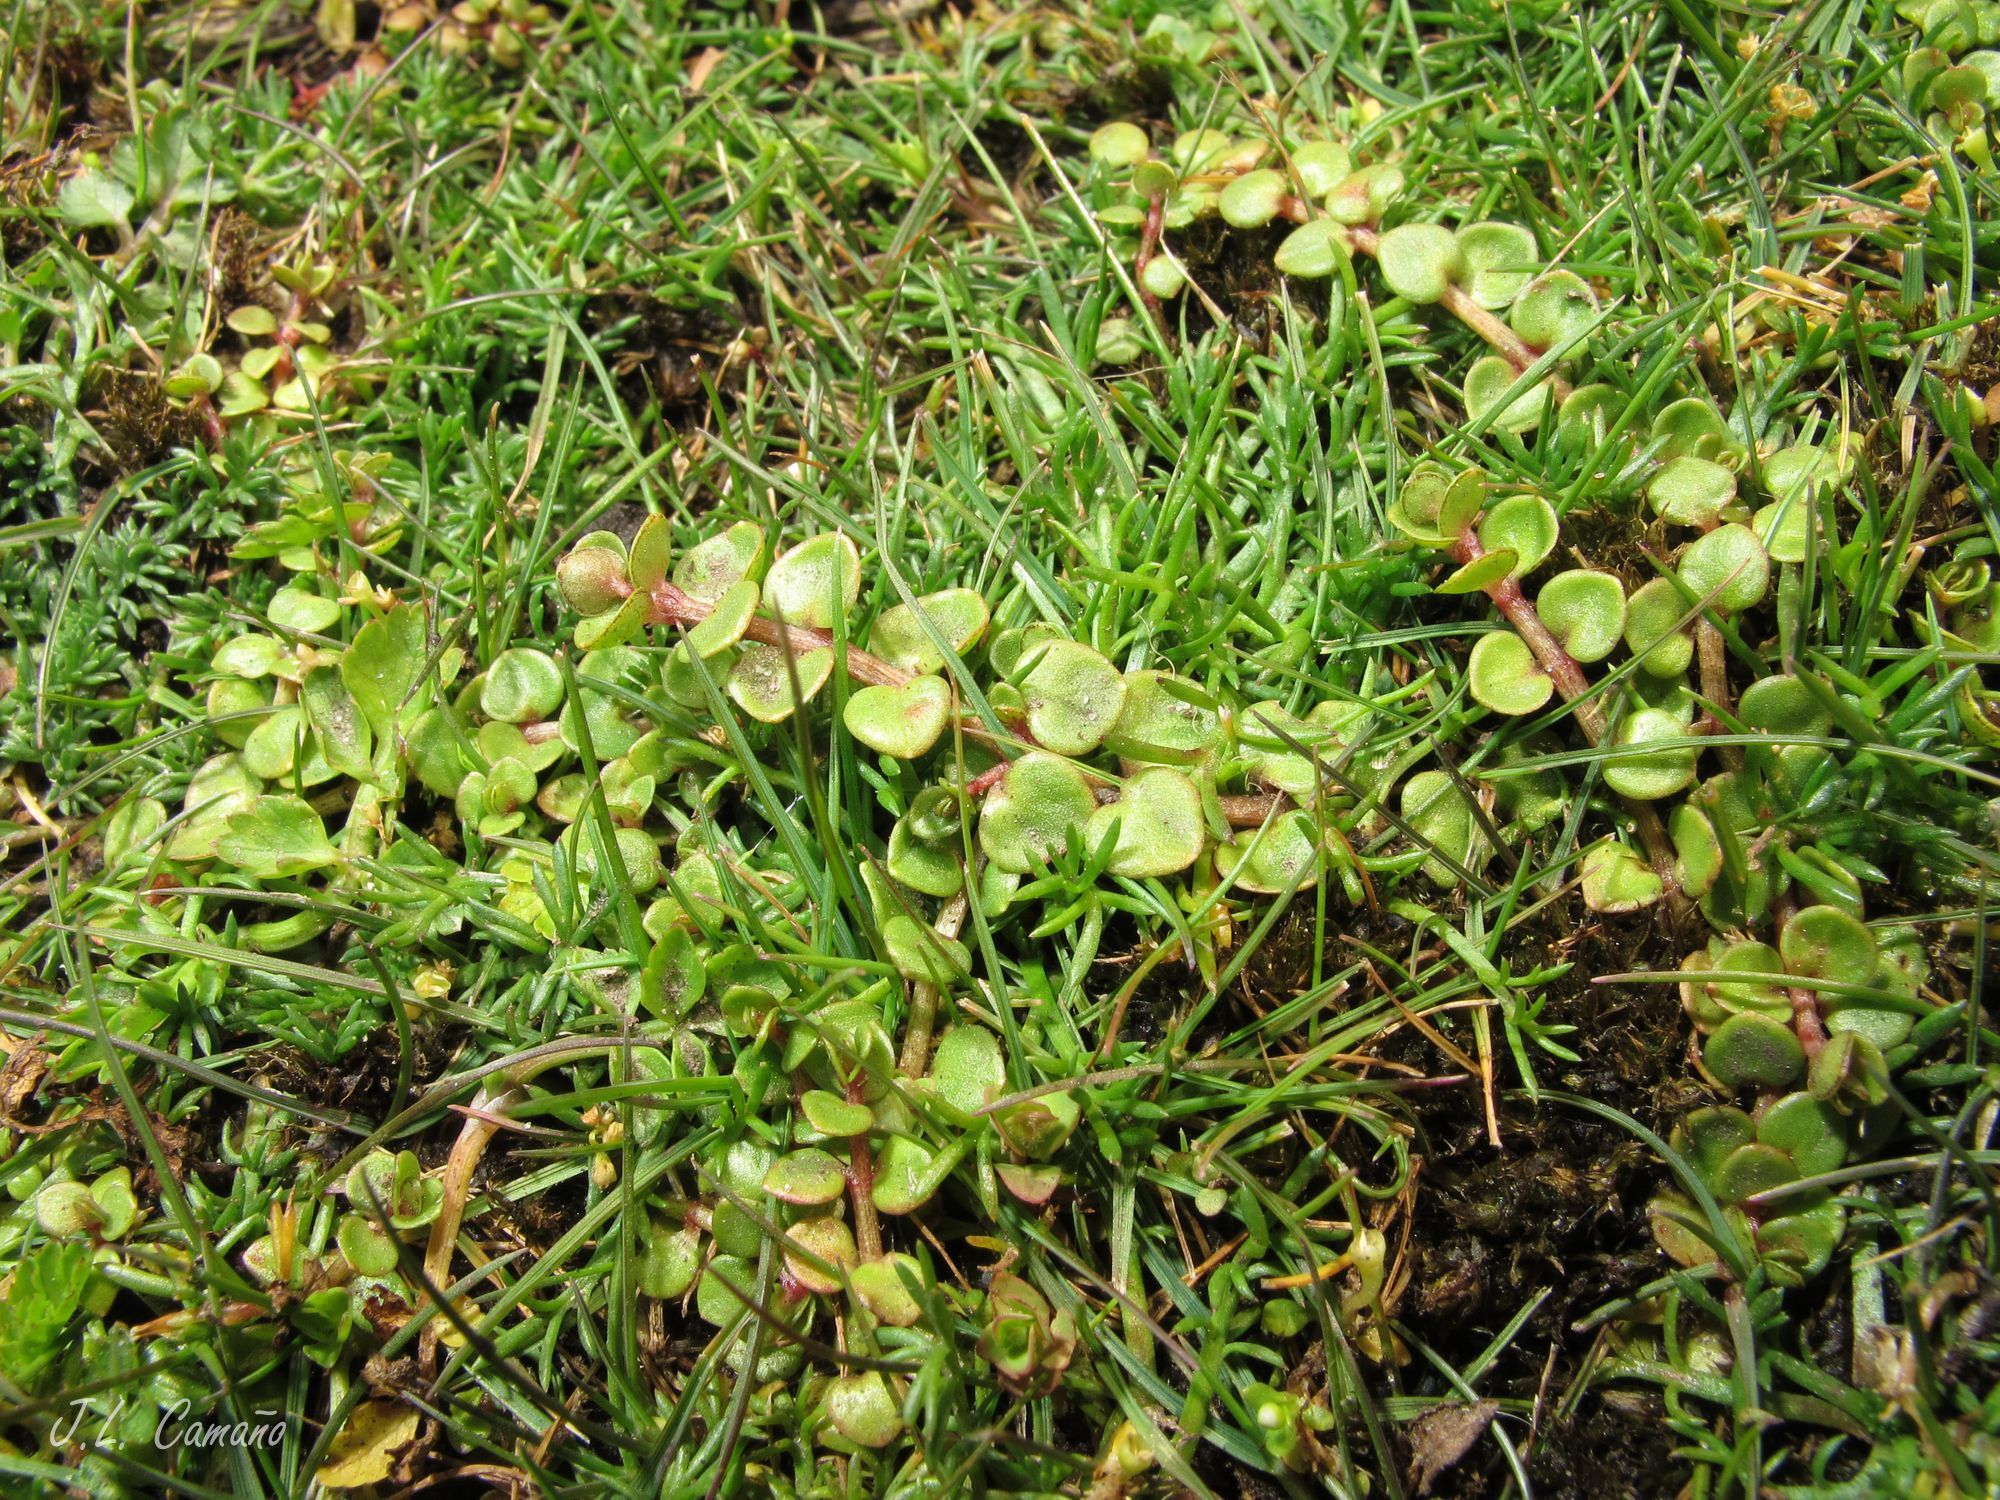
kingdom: Plantae
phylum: Tracheophyta
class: Magnoliopsida
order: Ericales
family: Primulaceae
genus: Lysimachia
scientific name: Lysimachia tenella
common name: European bog pimpernel
